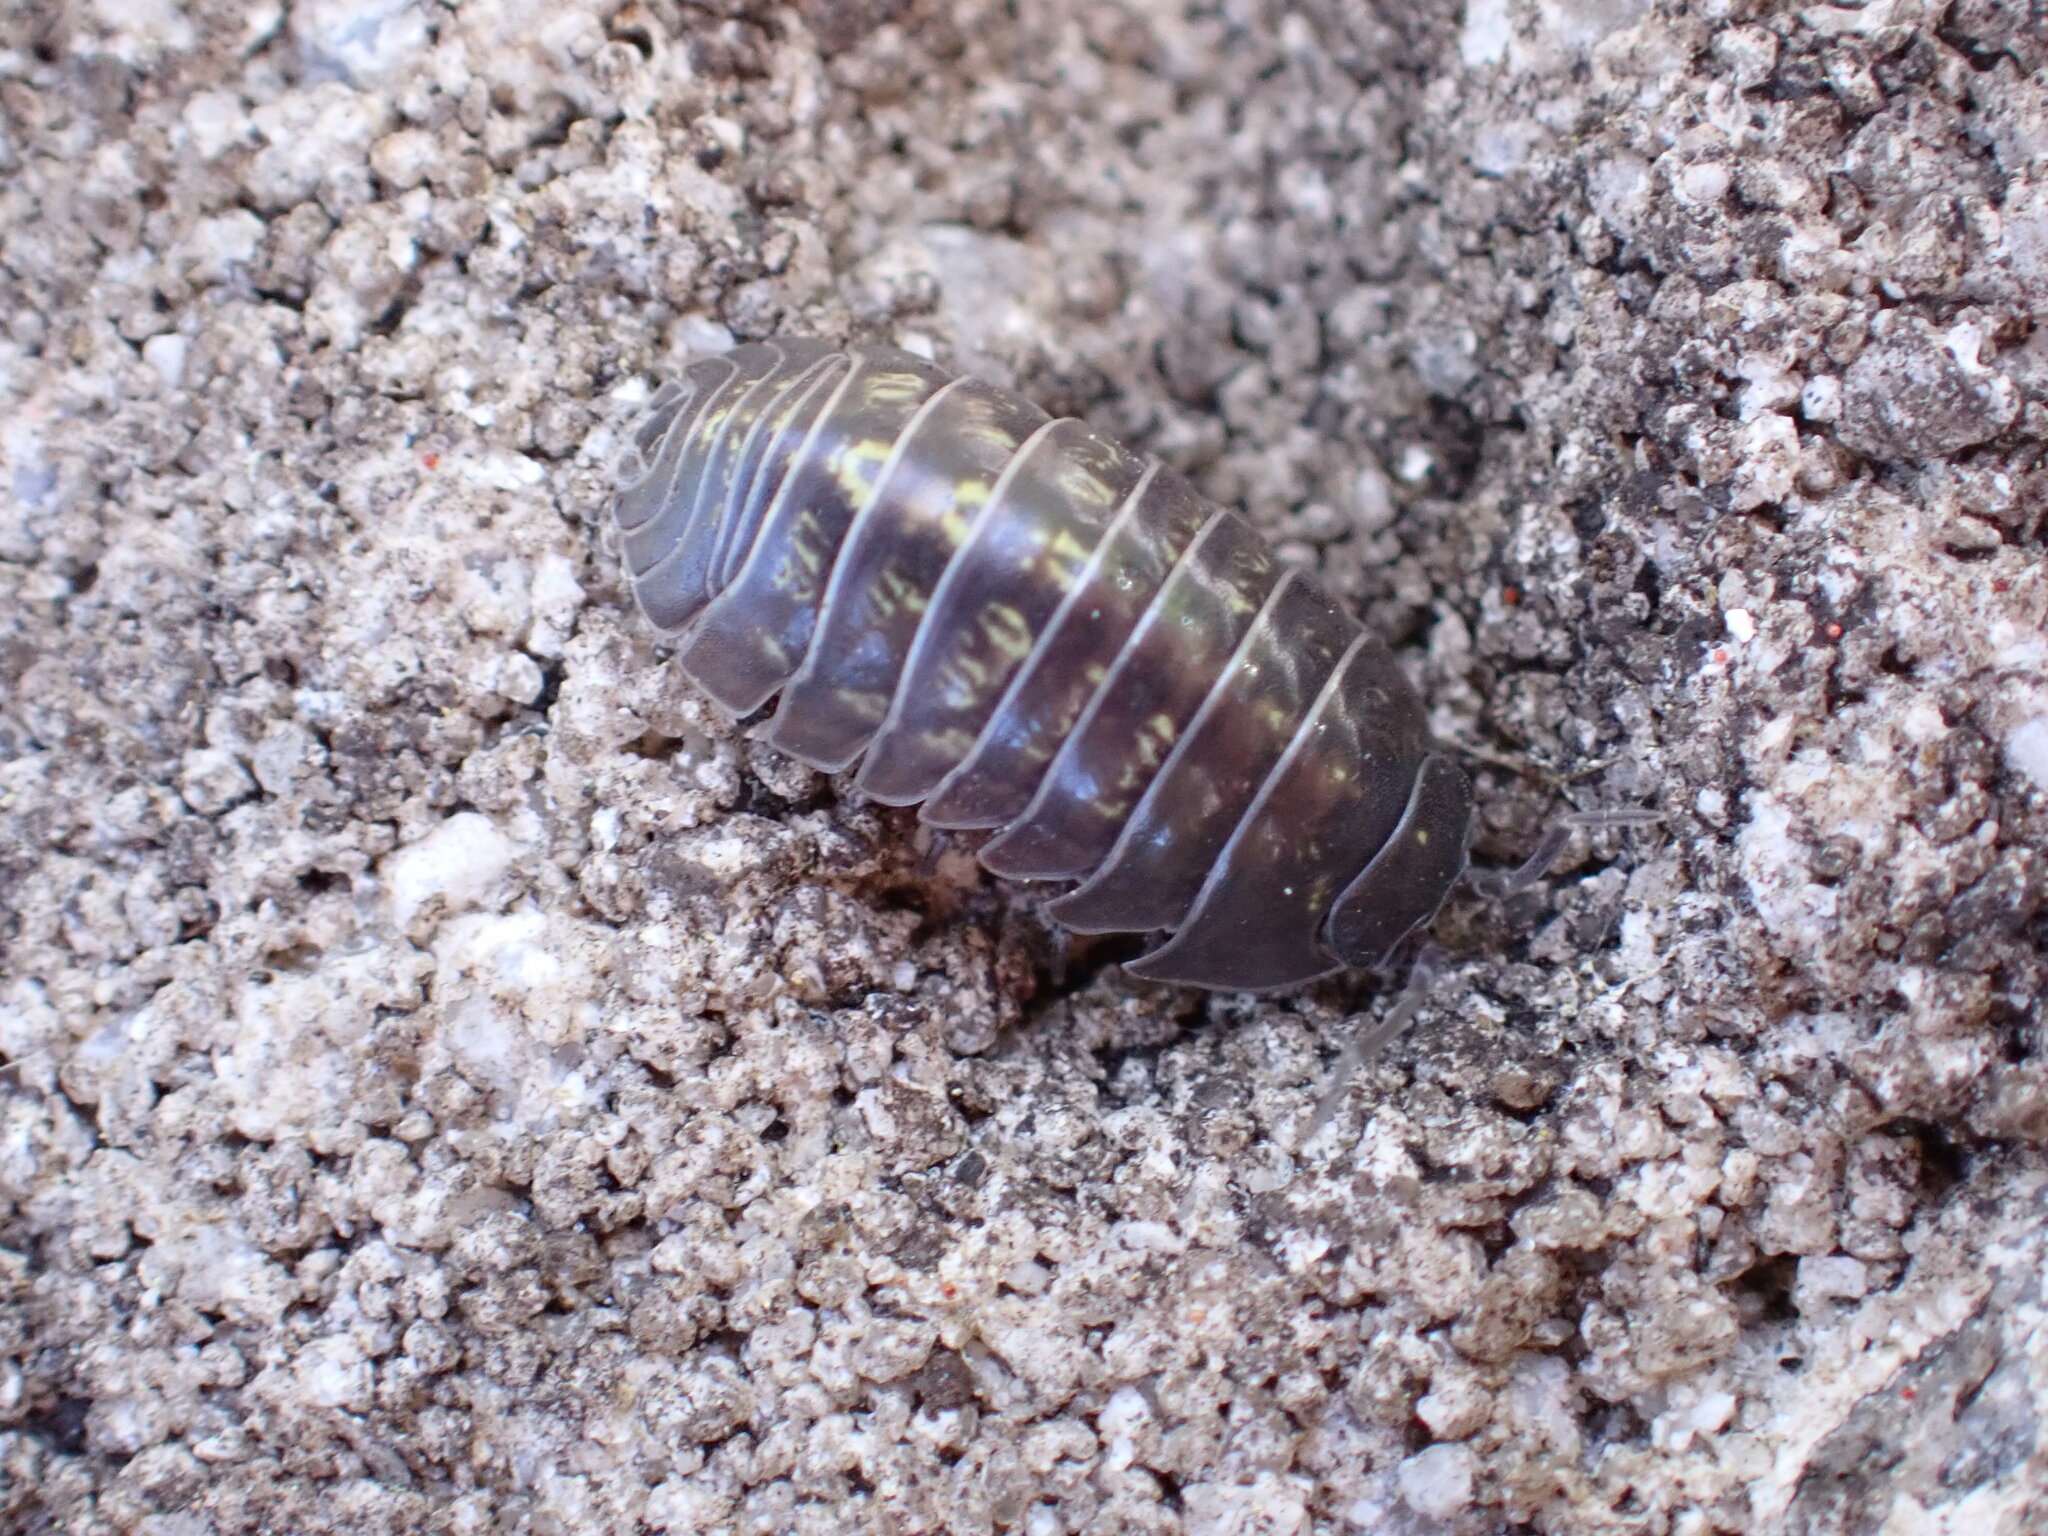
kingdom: Animalia
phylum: Arthropoda
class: Malacostraca
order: Isopoda
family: Armadillidiidae
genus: Armadillidium
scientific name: Armadillidium vulgare
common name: Common pill woodlouse
